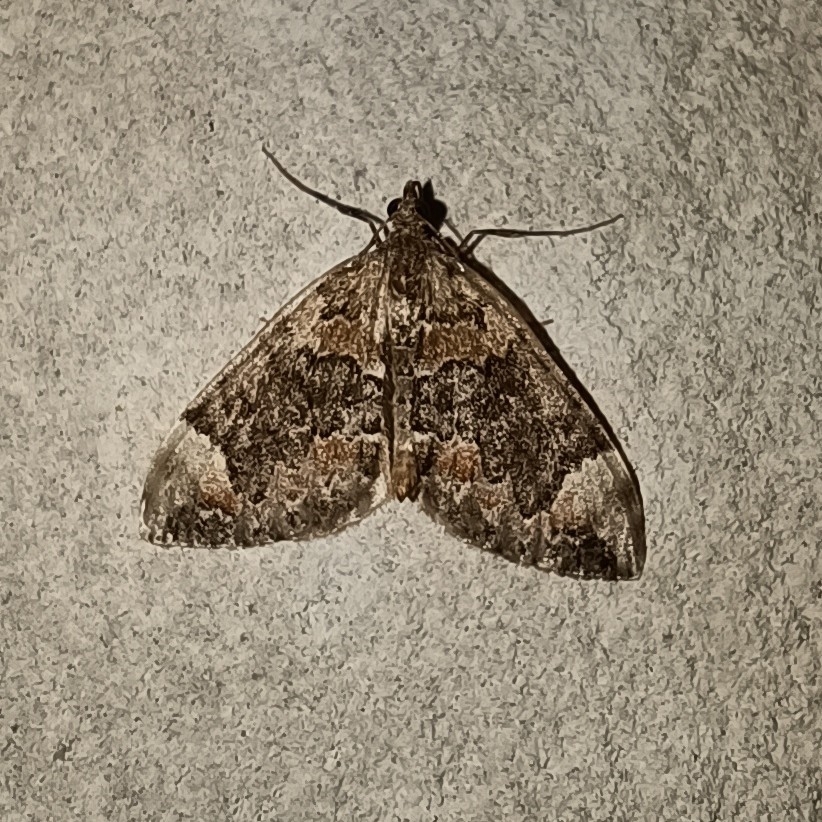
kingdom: Animalia
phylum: Arthropoda
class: Insecta
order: Lepidoptera
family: Geometridae
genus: Dysstroma
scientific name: Dysstroma citrata
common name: Dark marbled carpet
